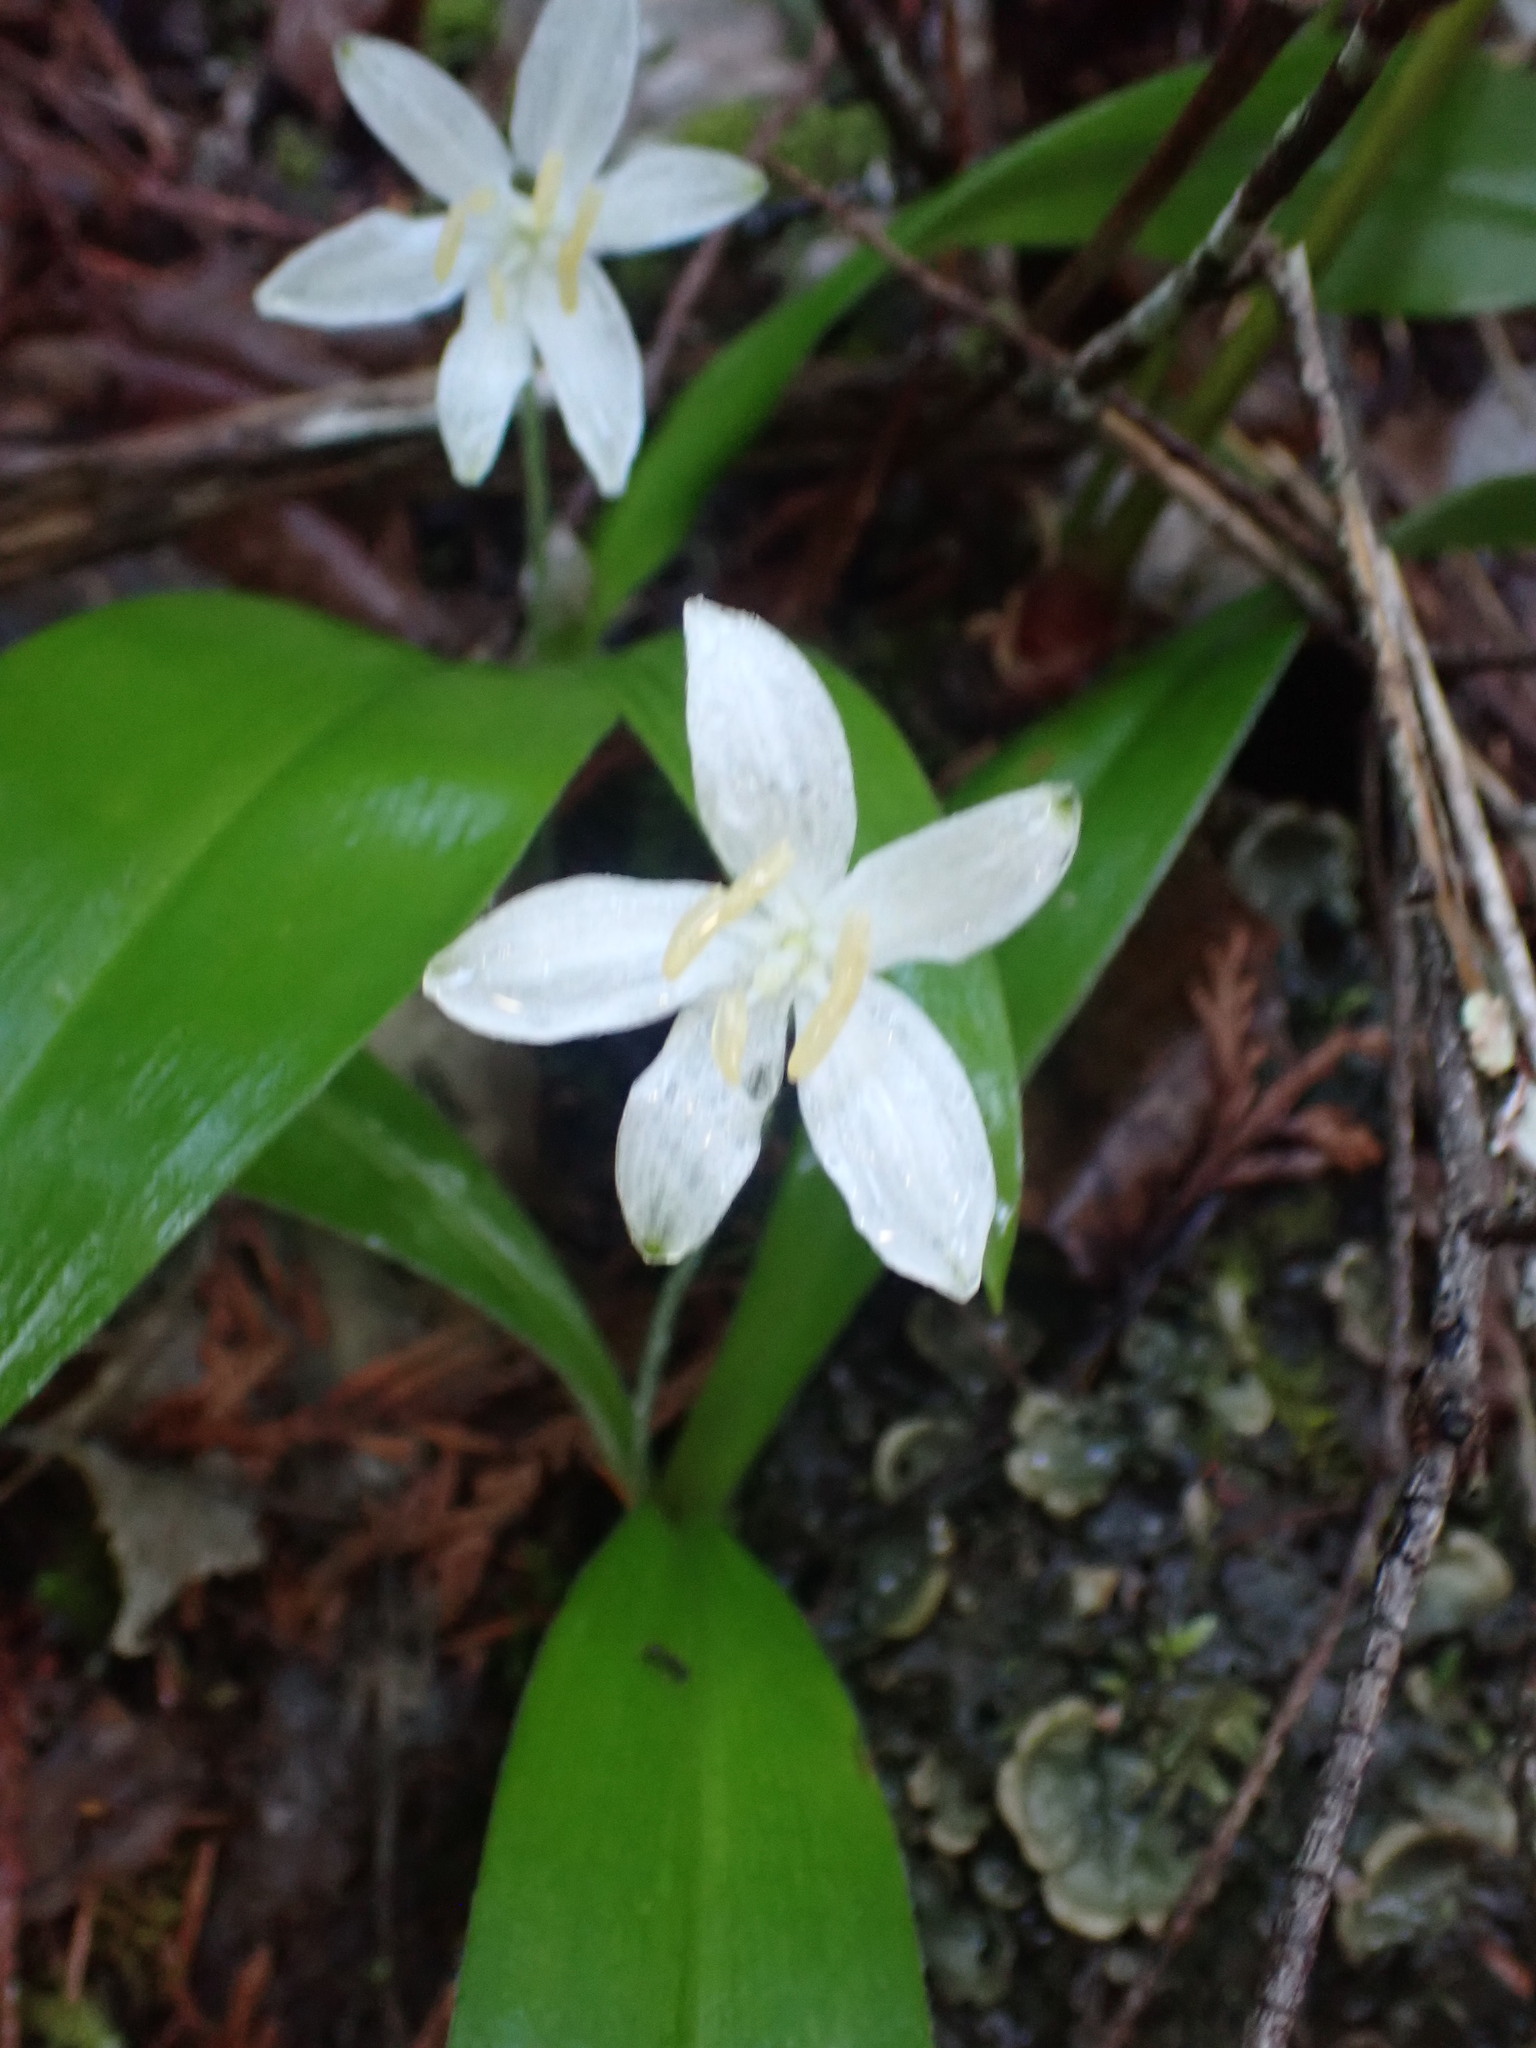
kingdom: Plantae
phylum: Tracheophyta
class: Liliopsida
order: Liliales
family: Liliaceae
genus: Clintonia
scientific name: Clintonia uniflora
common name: Queen's cup
